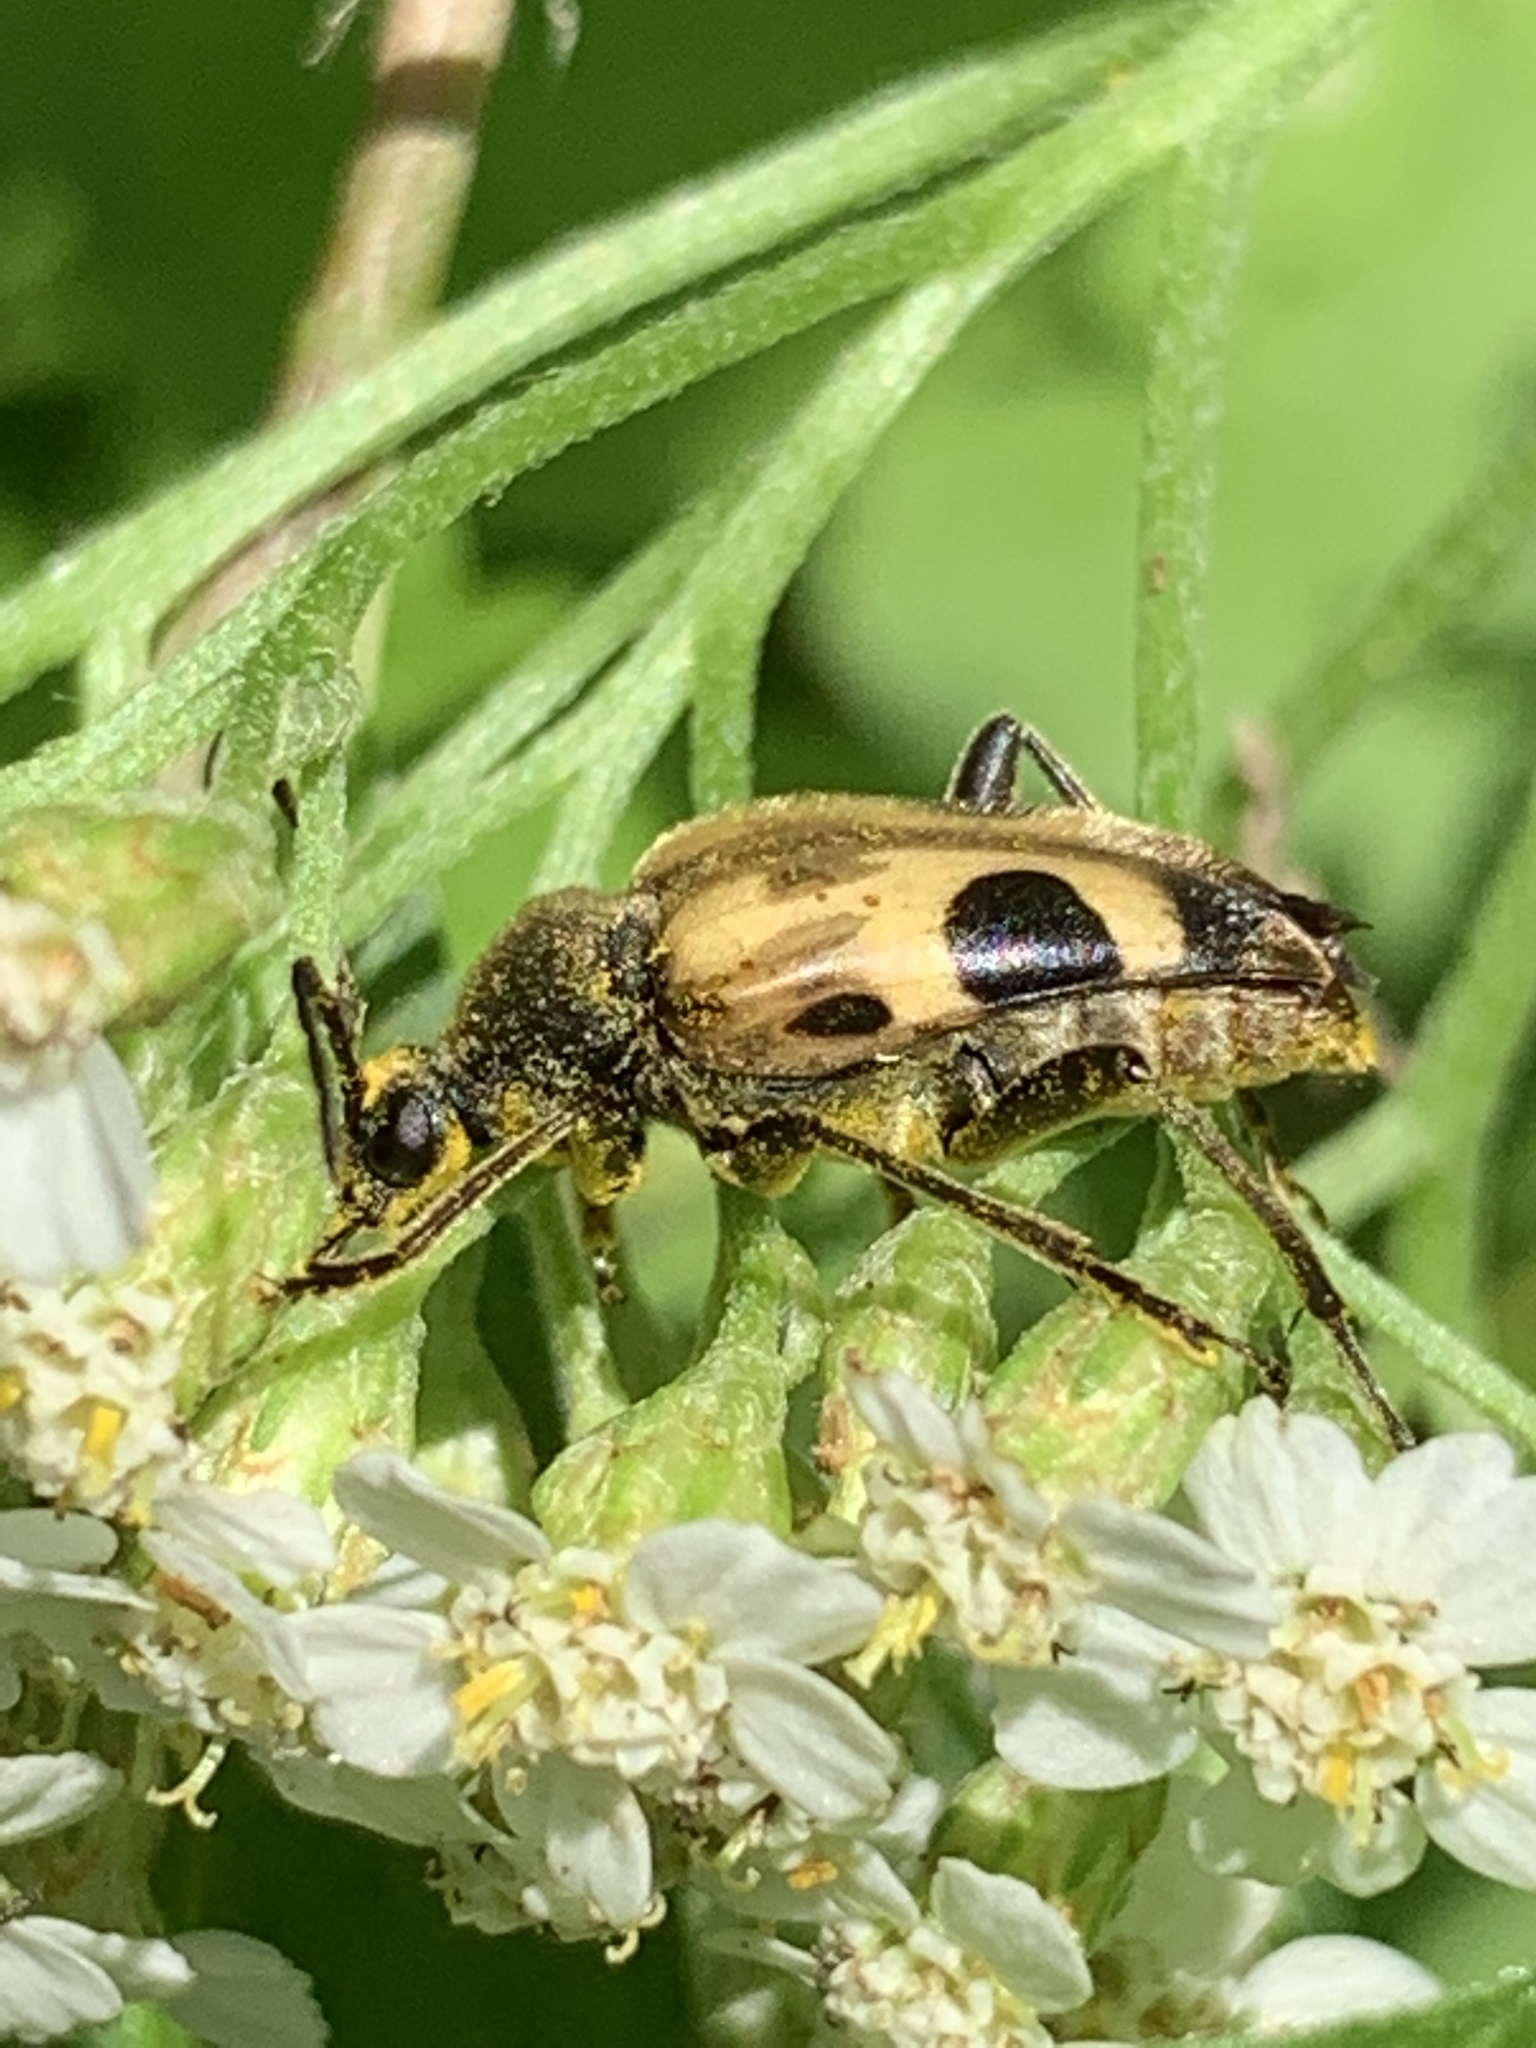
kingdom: Animalia
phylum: Arthropoda
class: Insecta
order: Coleoptera
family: Cerambycidae
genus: Judolia
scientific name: Judolia cordifera
